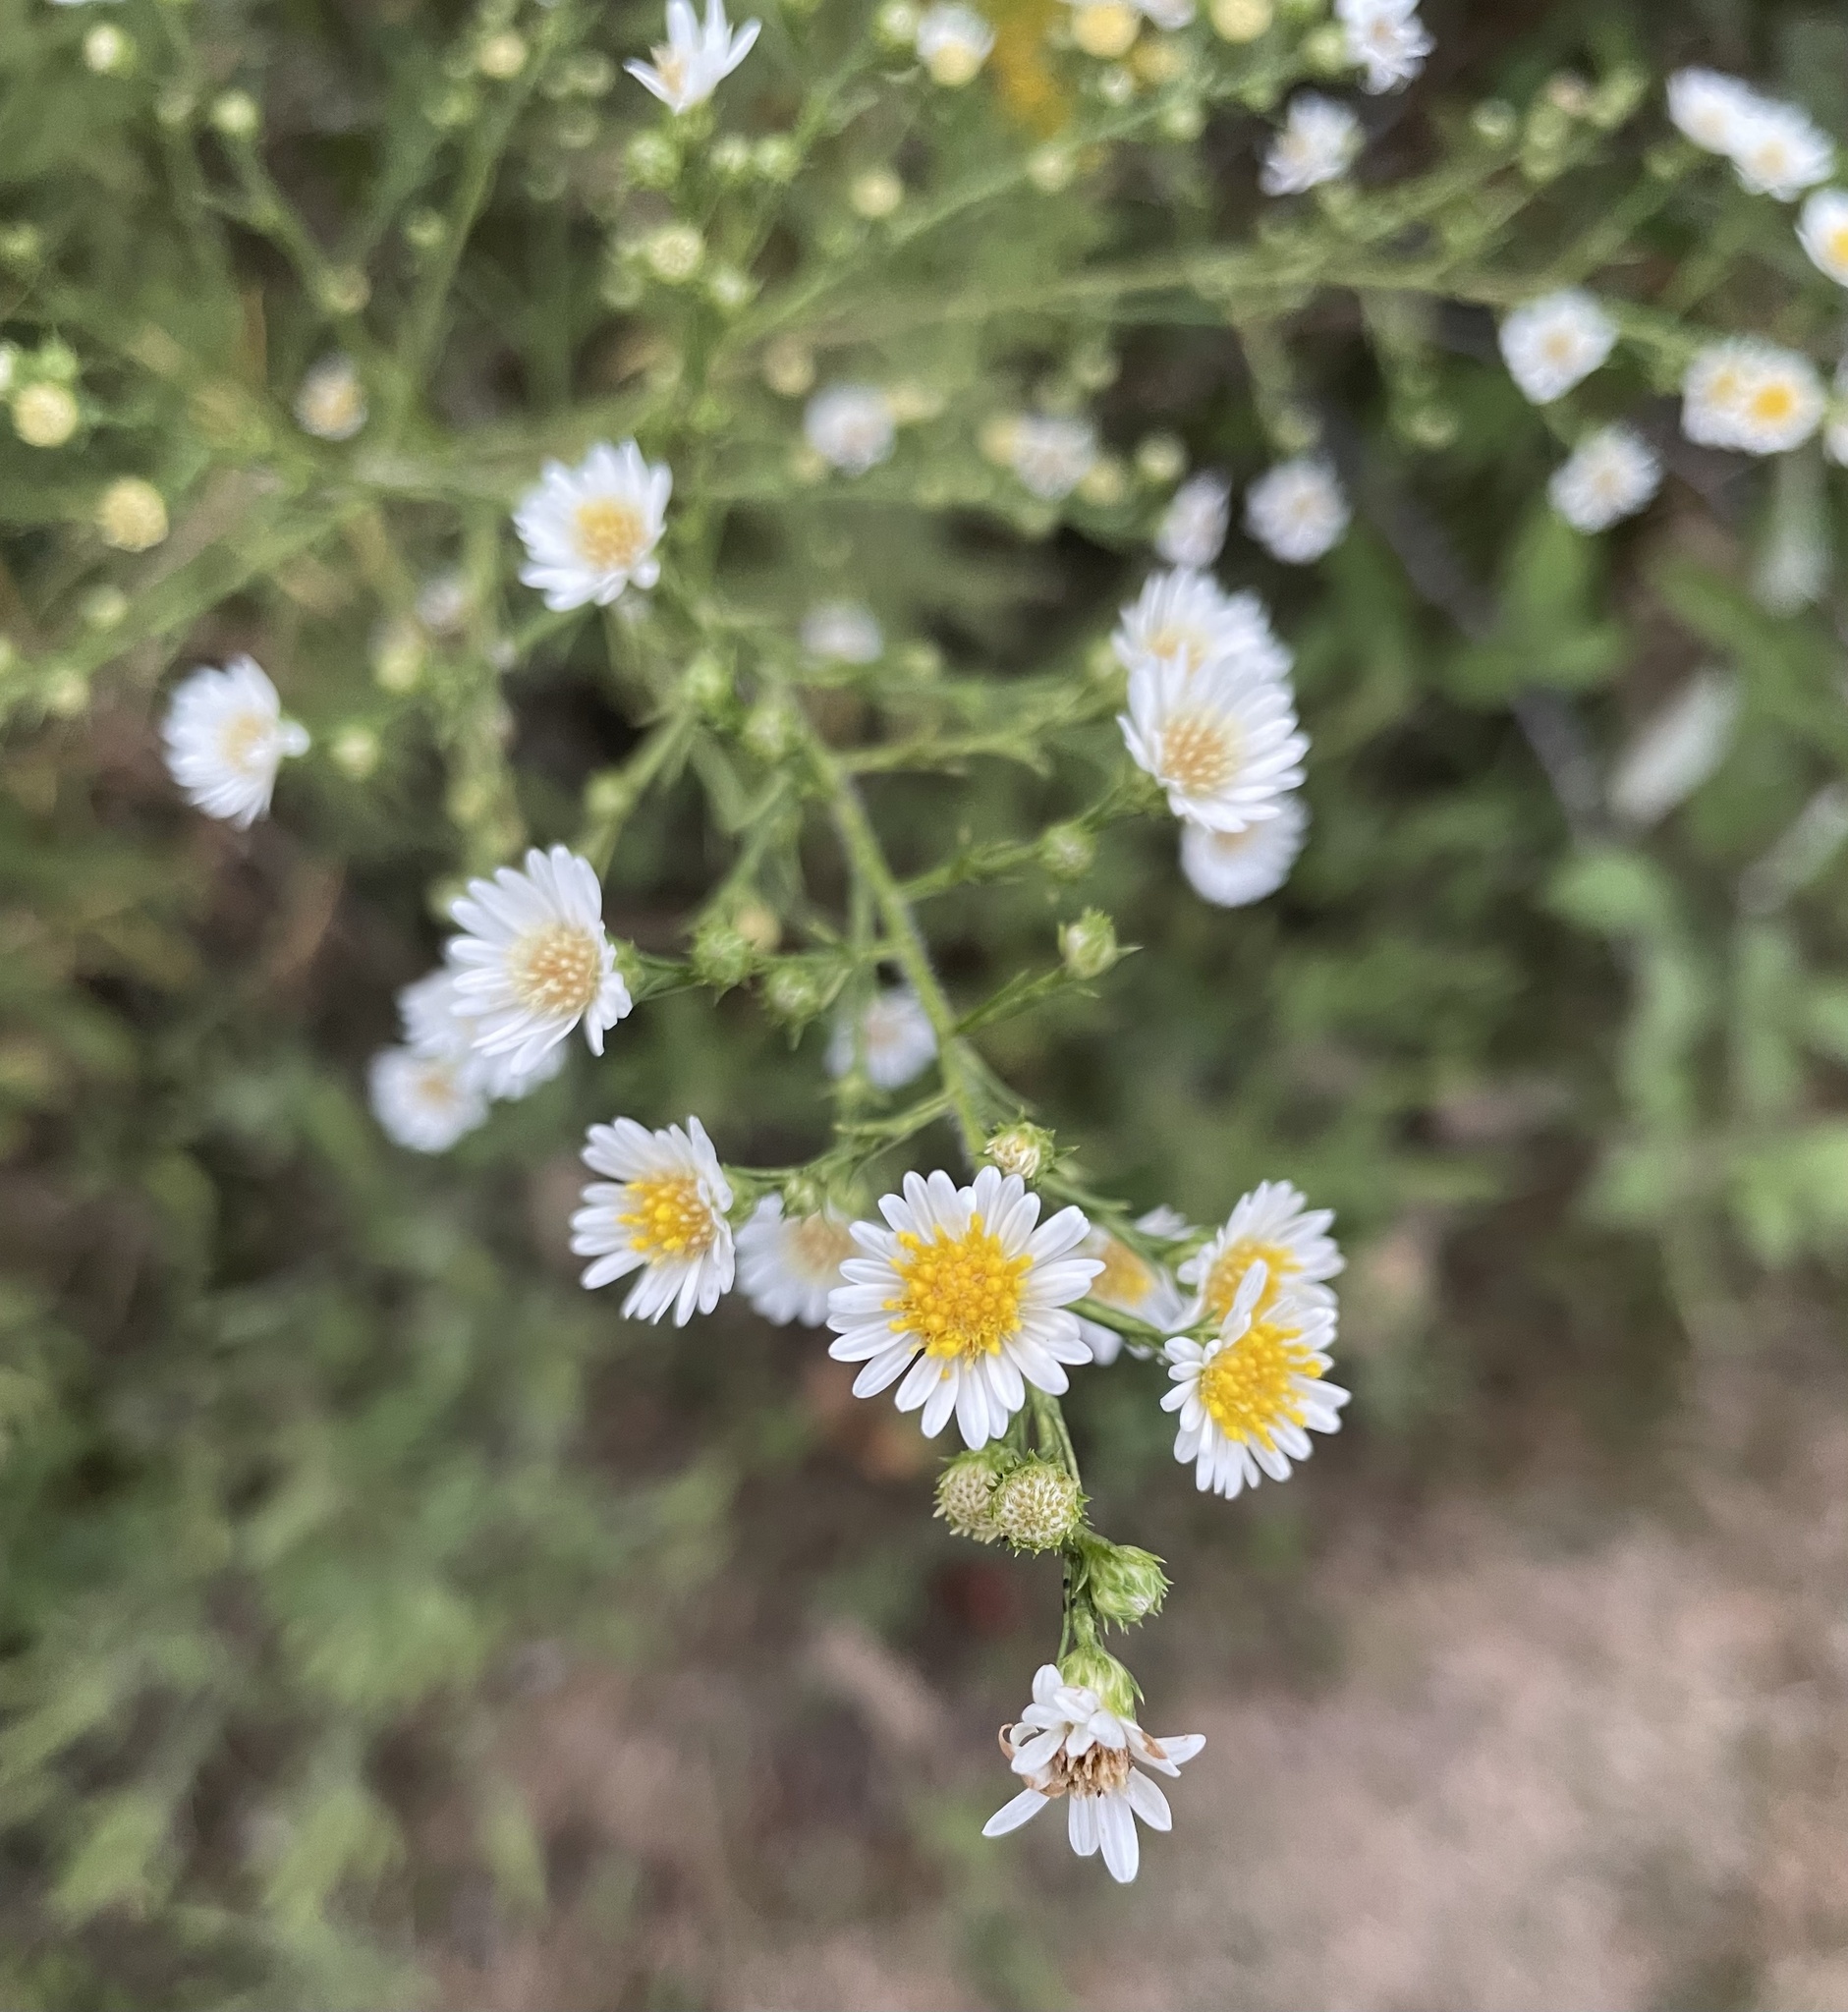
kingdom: Plantae
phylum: Tracheophyta
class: Magnoliopsida
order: Asterales
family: Asteraceae
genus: Symphyotrichum
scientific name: Symphyotrichum pilosum
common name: Awl aster
